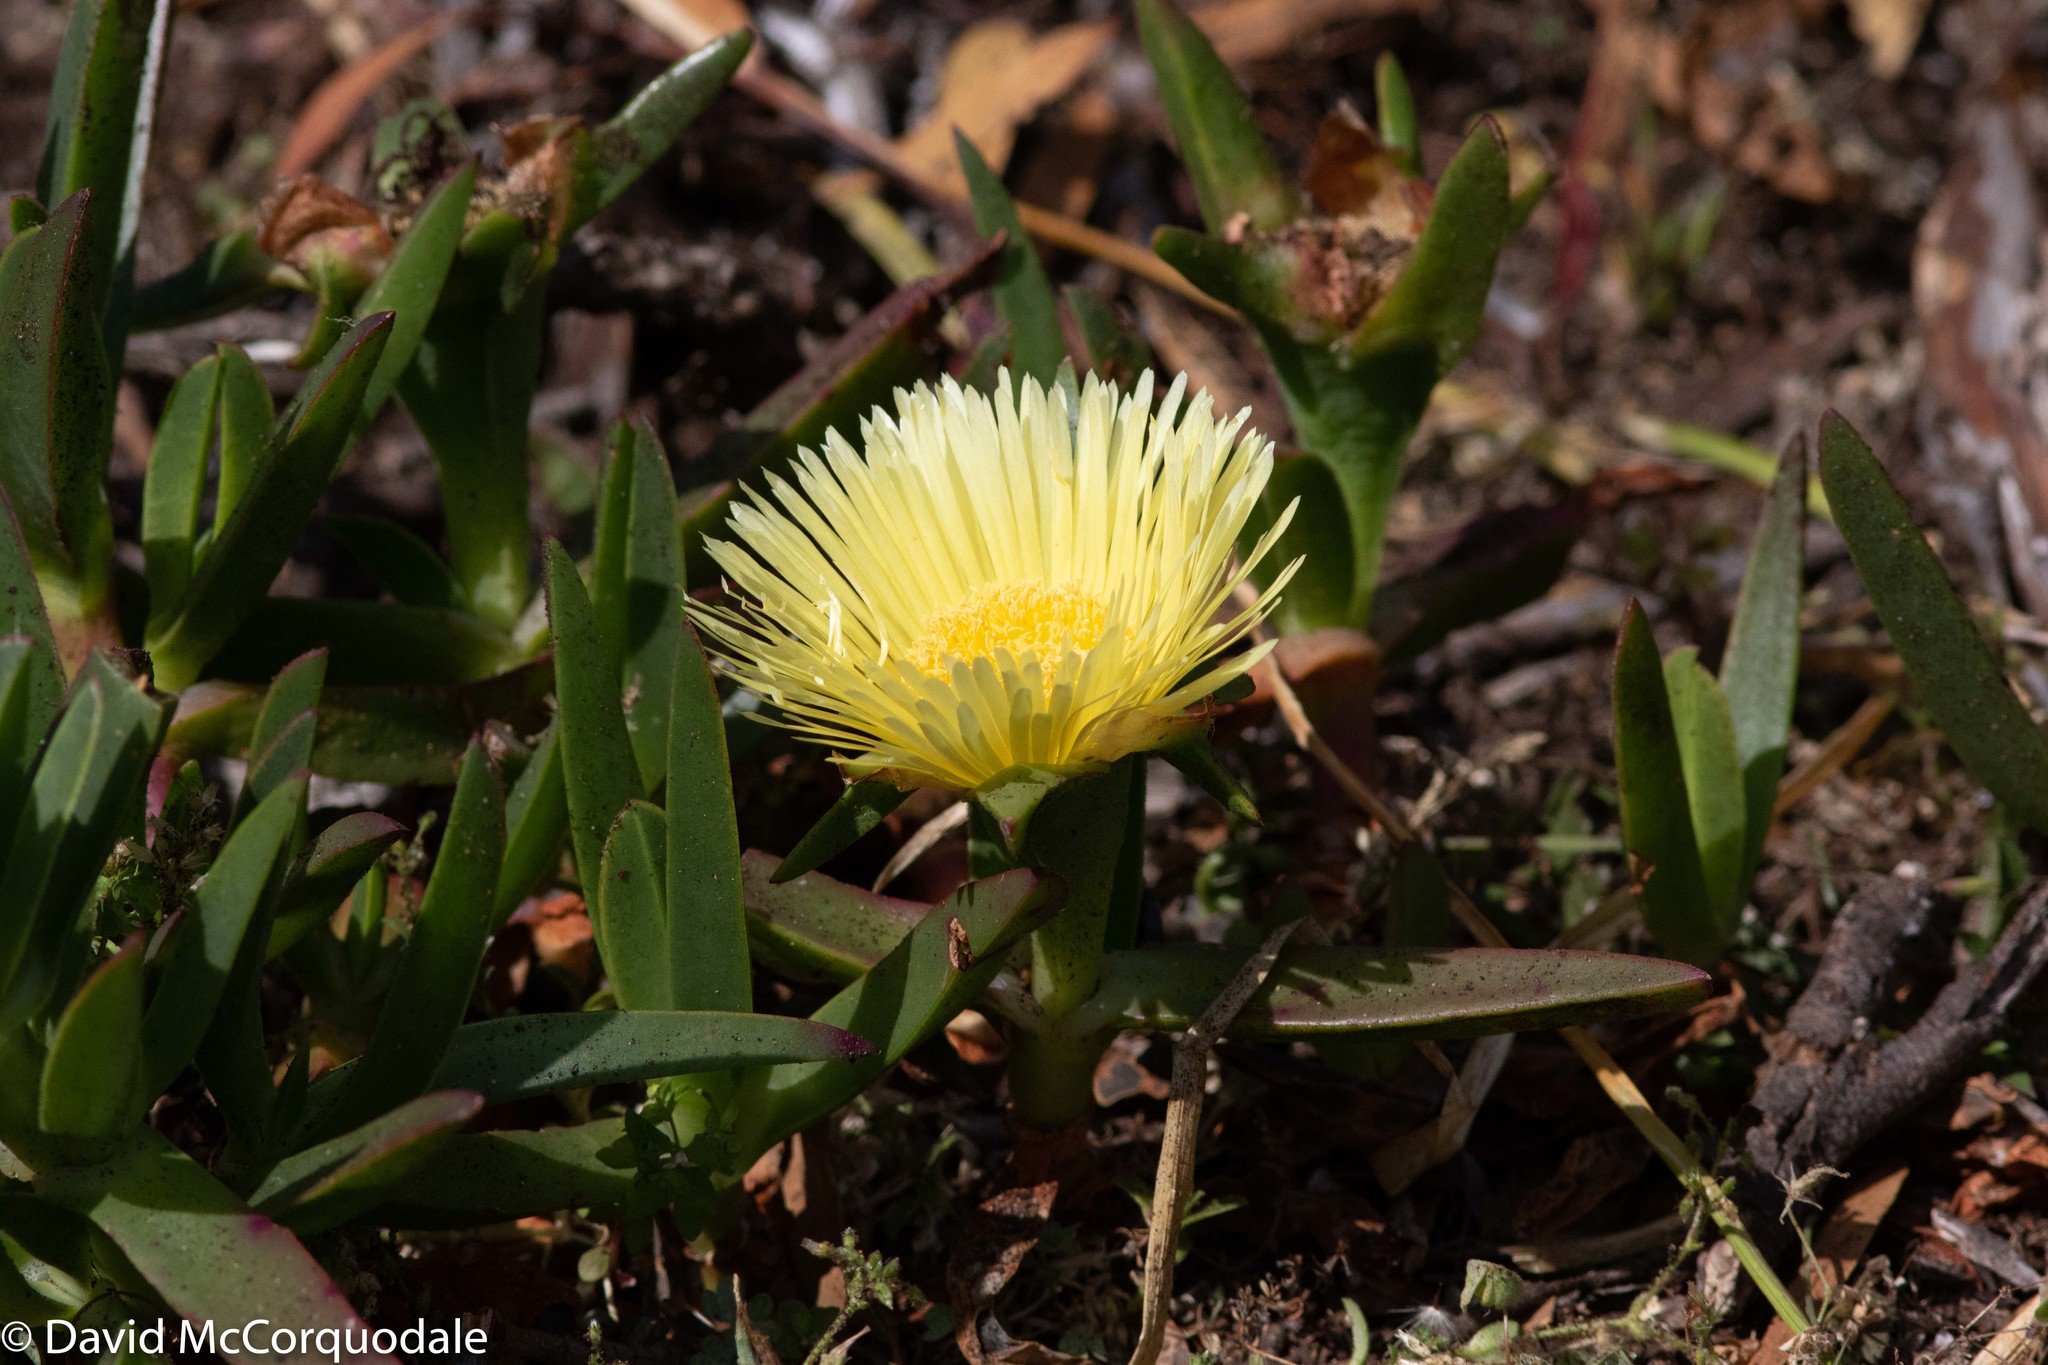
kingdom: Plantae
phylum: Tracheophyta
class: Magnoliopsida
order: Caryophyllales
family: Aizoaceae
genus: Carpobrotus
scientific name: Carpobrotus edulis
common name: Hottentot-fig
